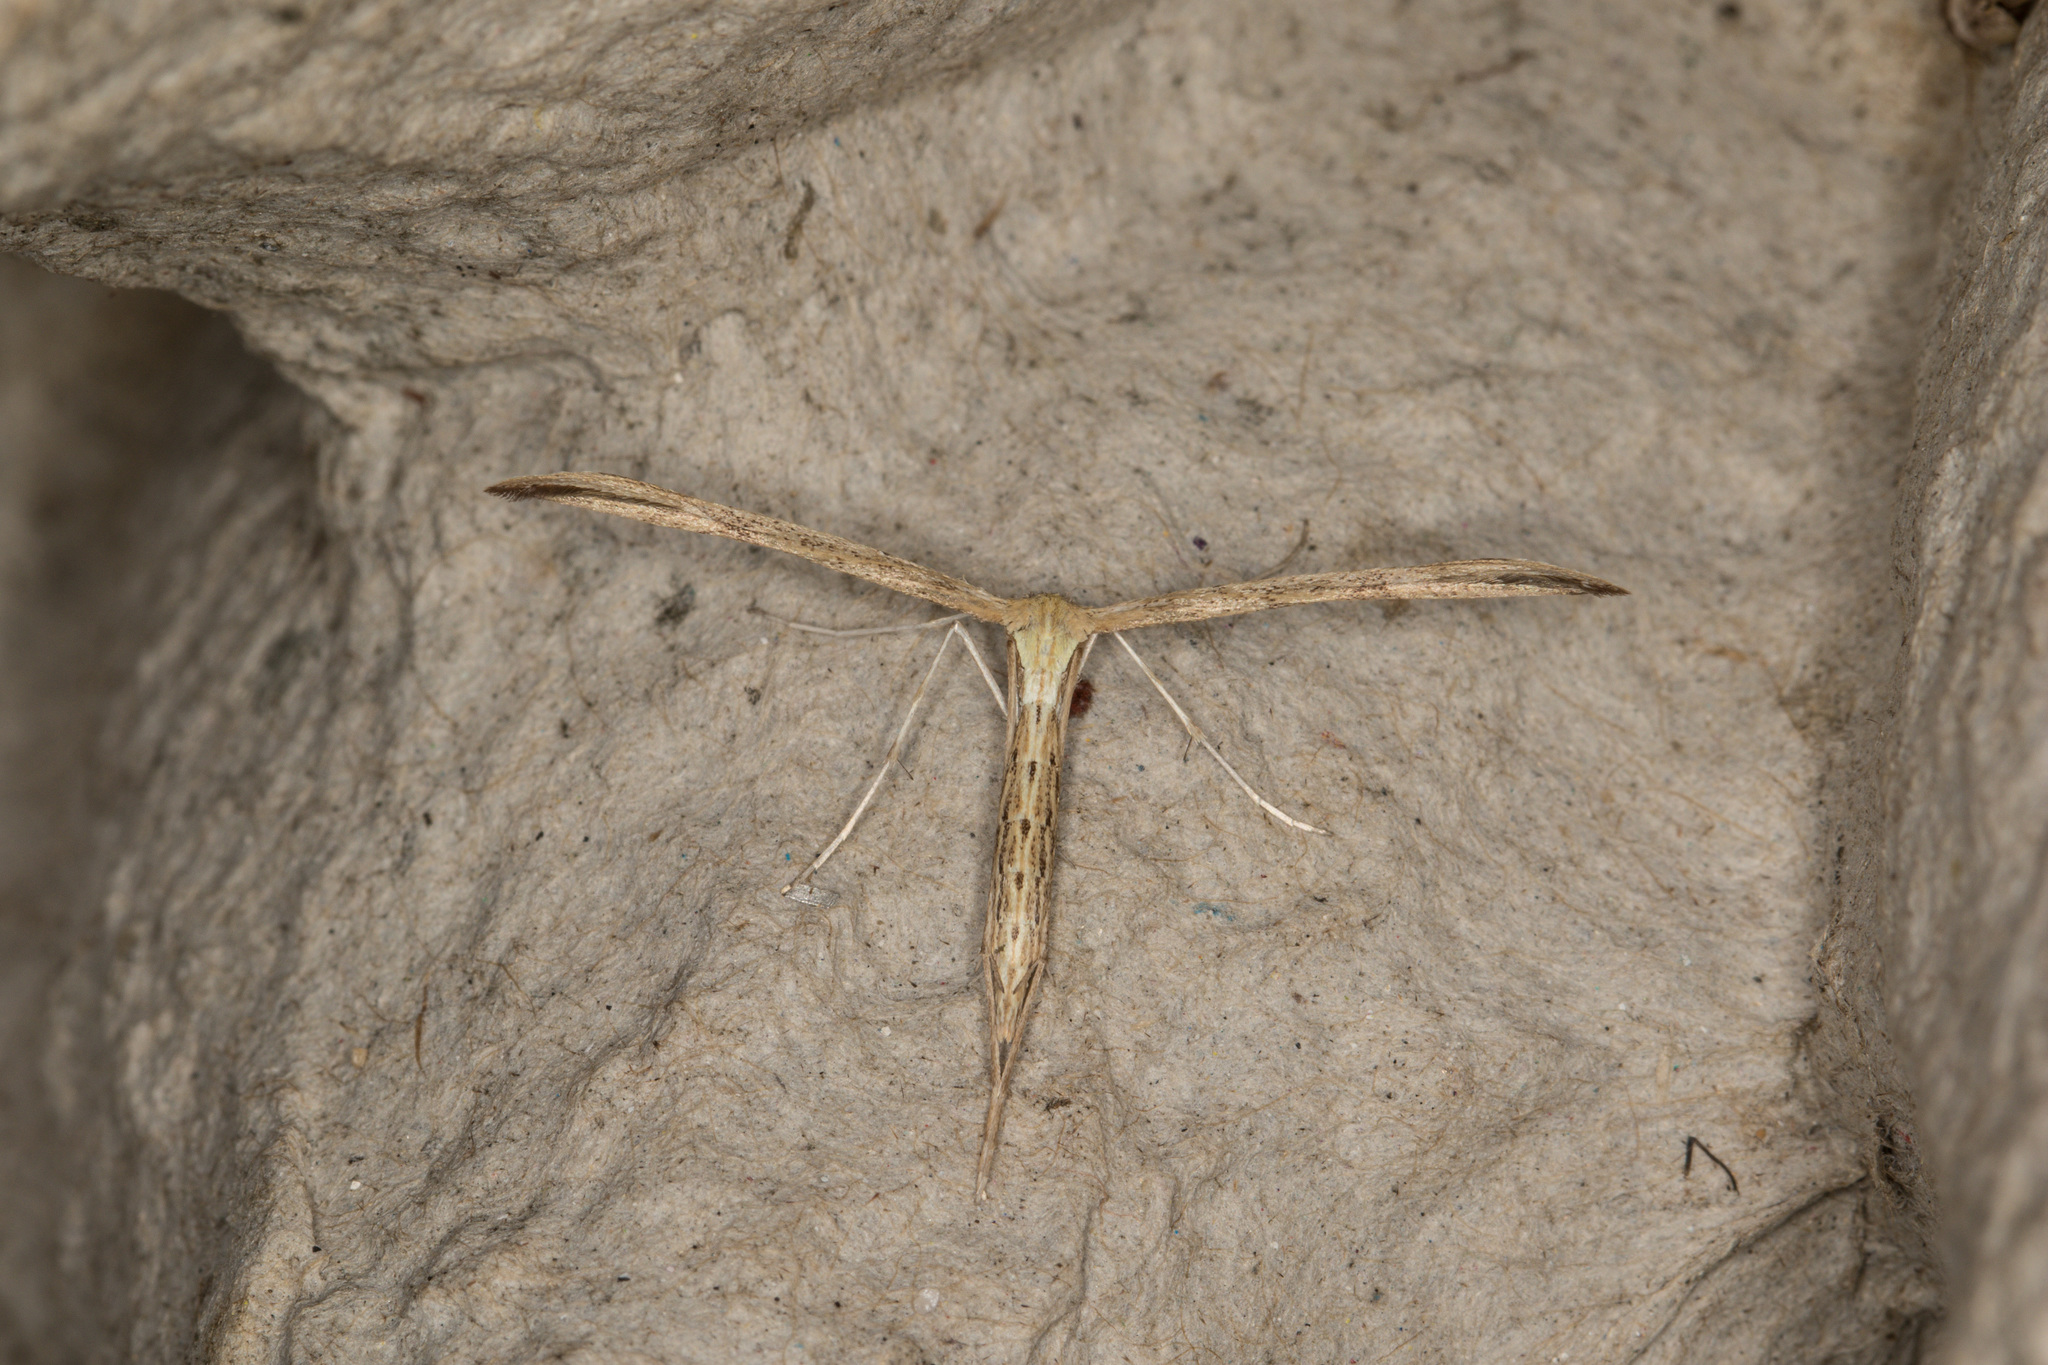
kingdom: Animalia
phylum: Arthropoda
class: Insecta
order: Lepidoptera
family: Pterophoridae
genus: Emmelina
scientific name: Emmelina monodactyla
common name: Common plume
